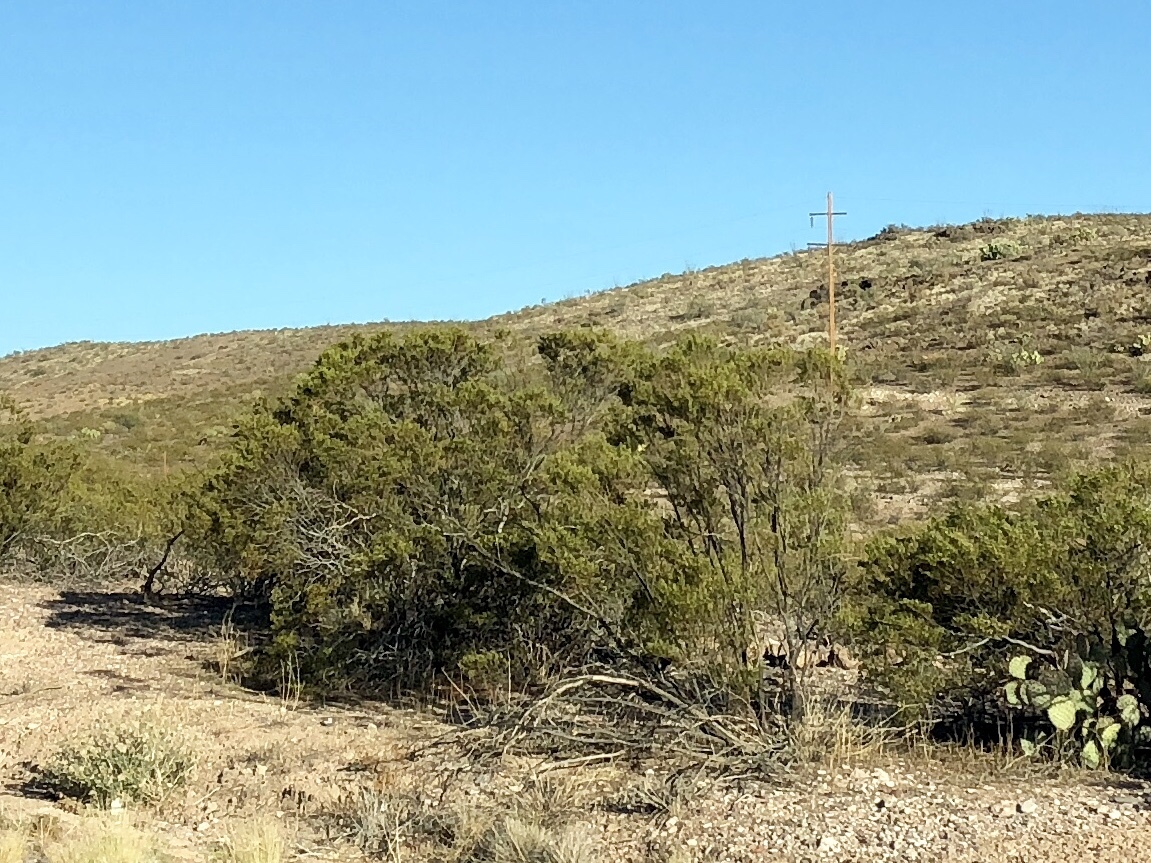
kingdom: Plantae
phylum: Tracheophyta
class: Magnoliopsida
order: Zygophyllales
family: Zygophyllaceae
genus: Larrea
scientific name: Larrea tridentata
